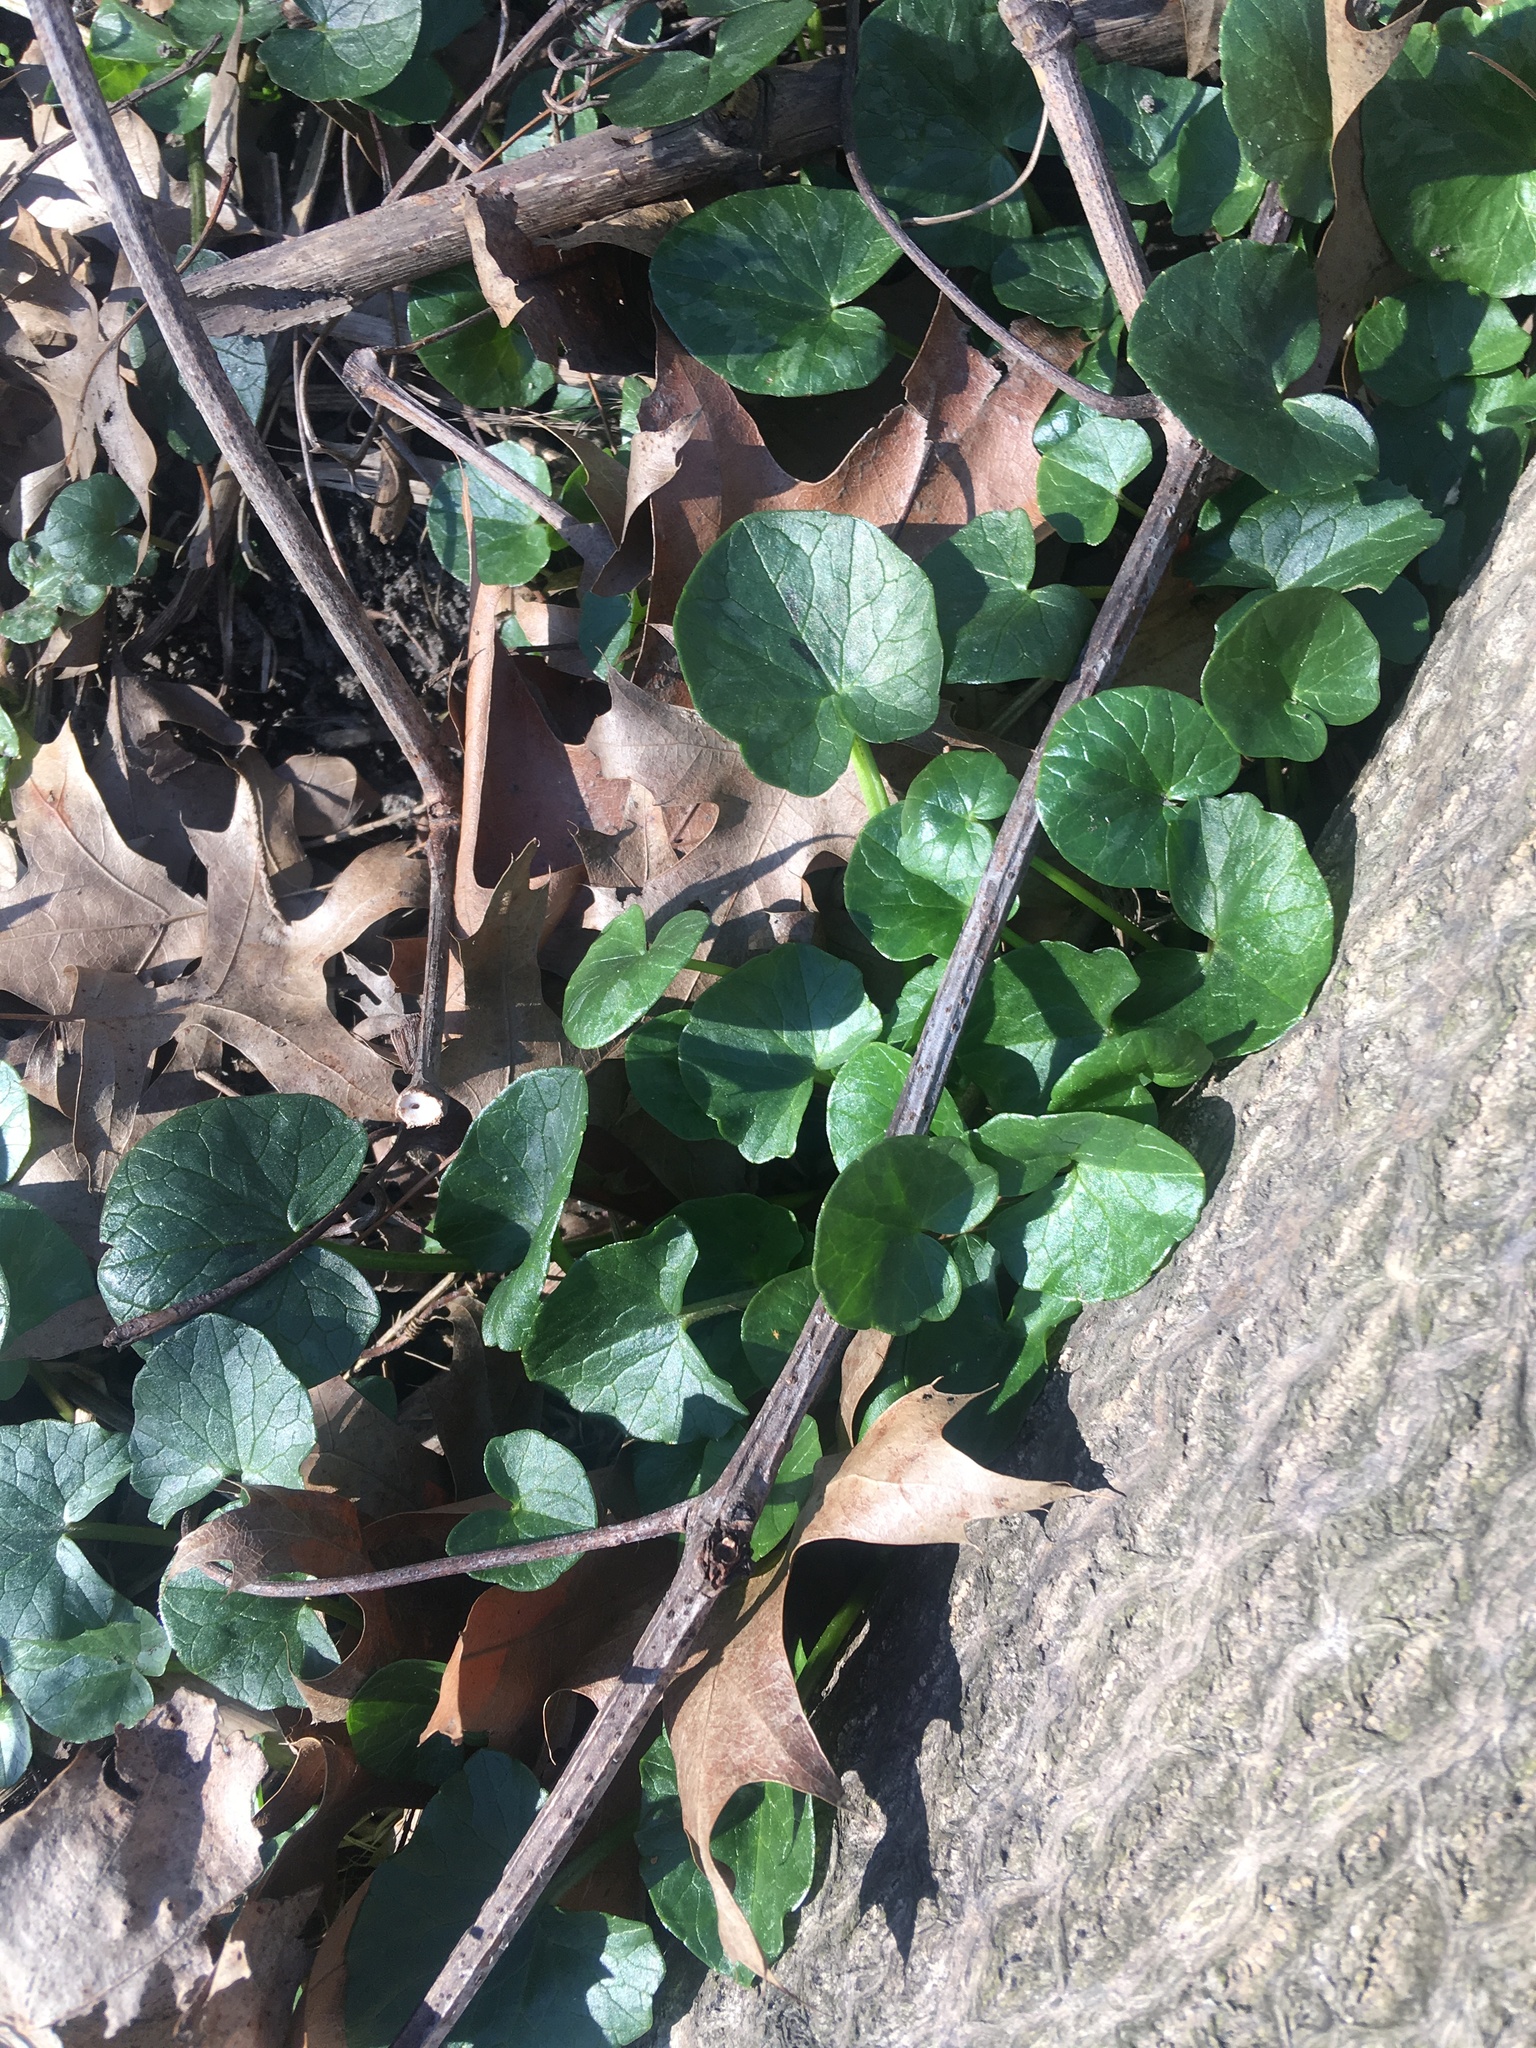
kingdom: Plantae
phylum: Tracheophyta
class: Magnoliopsida
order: Ranunculales
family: Ranunculaceae
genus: Ficaria
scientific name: Ficaria verna
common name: Lesser celandine
